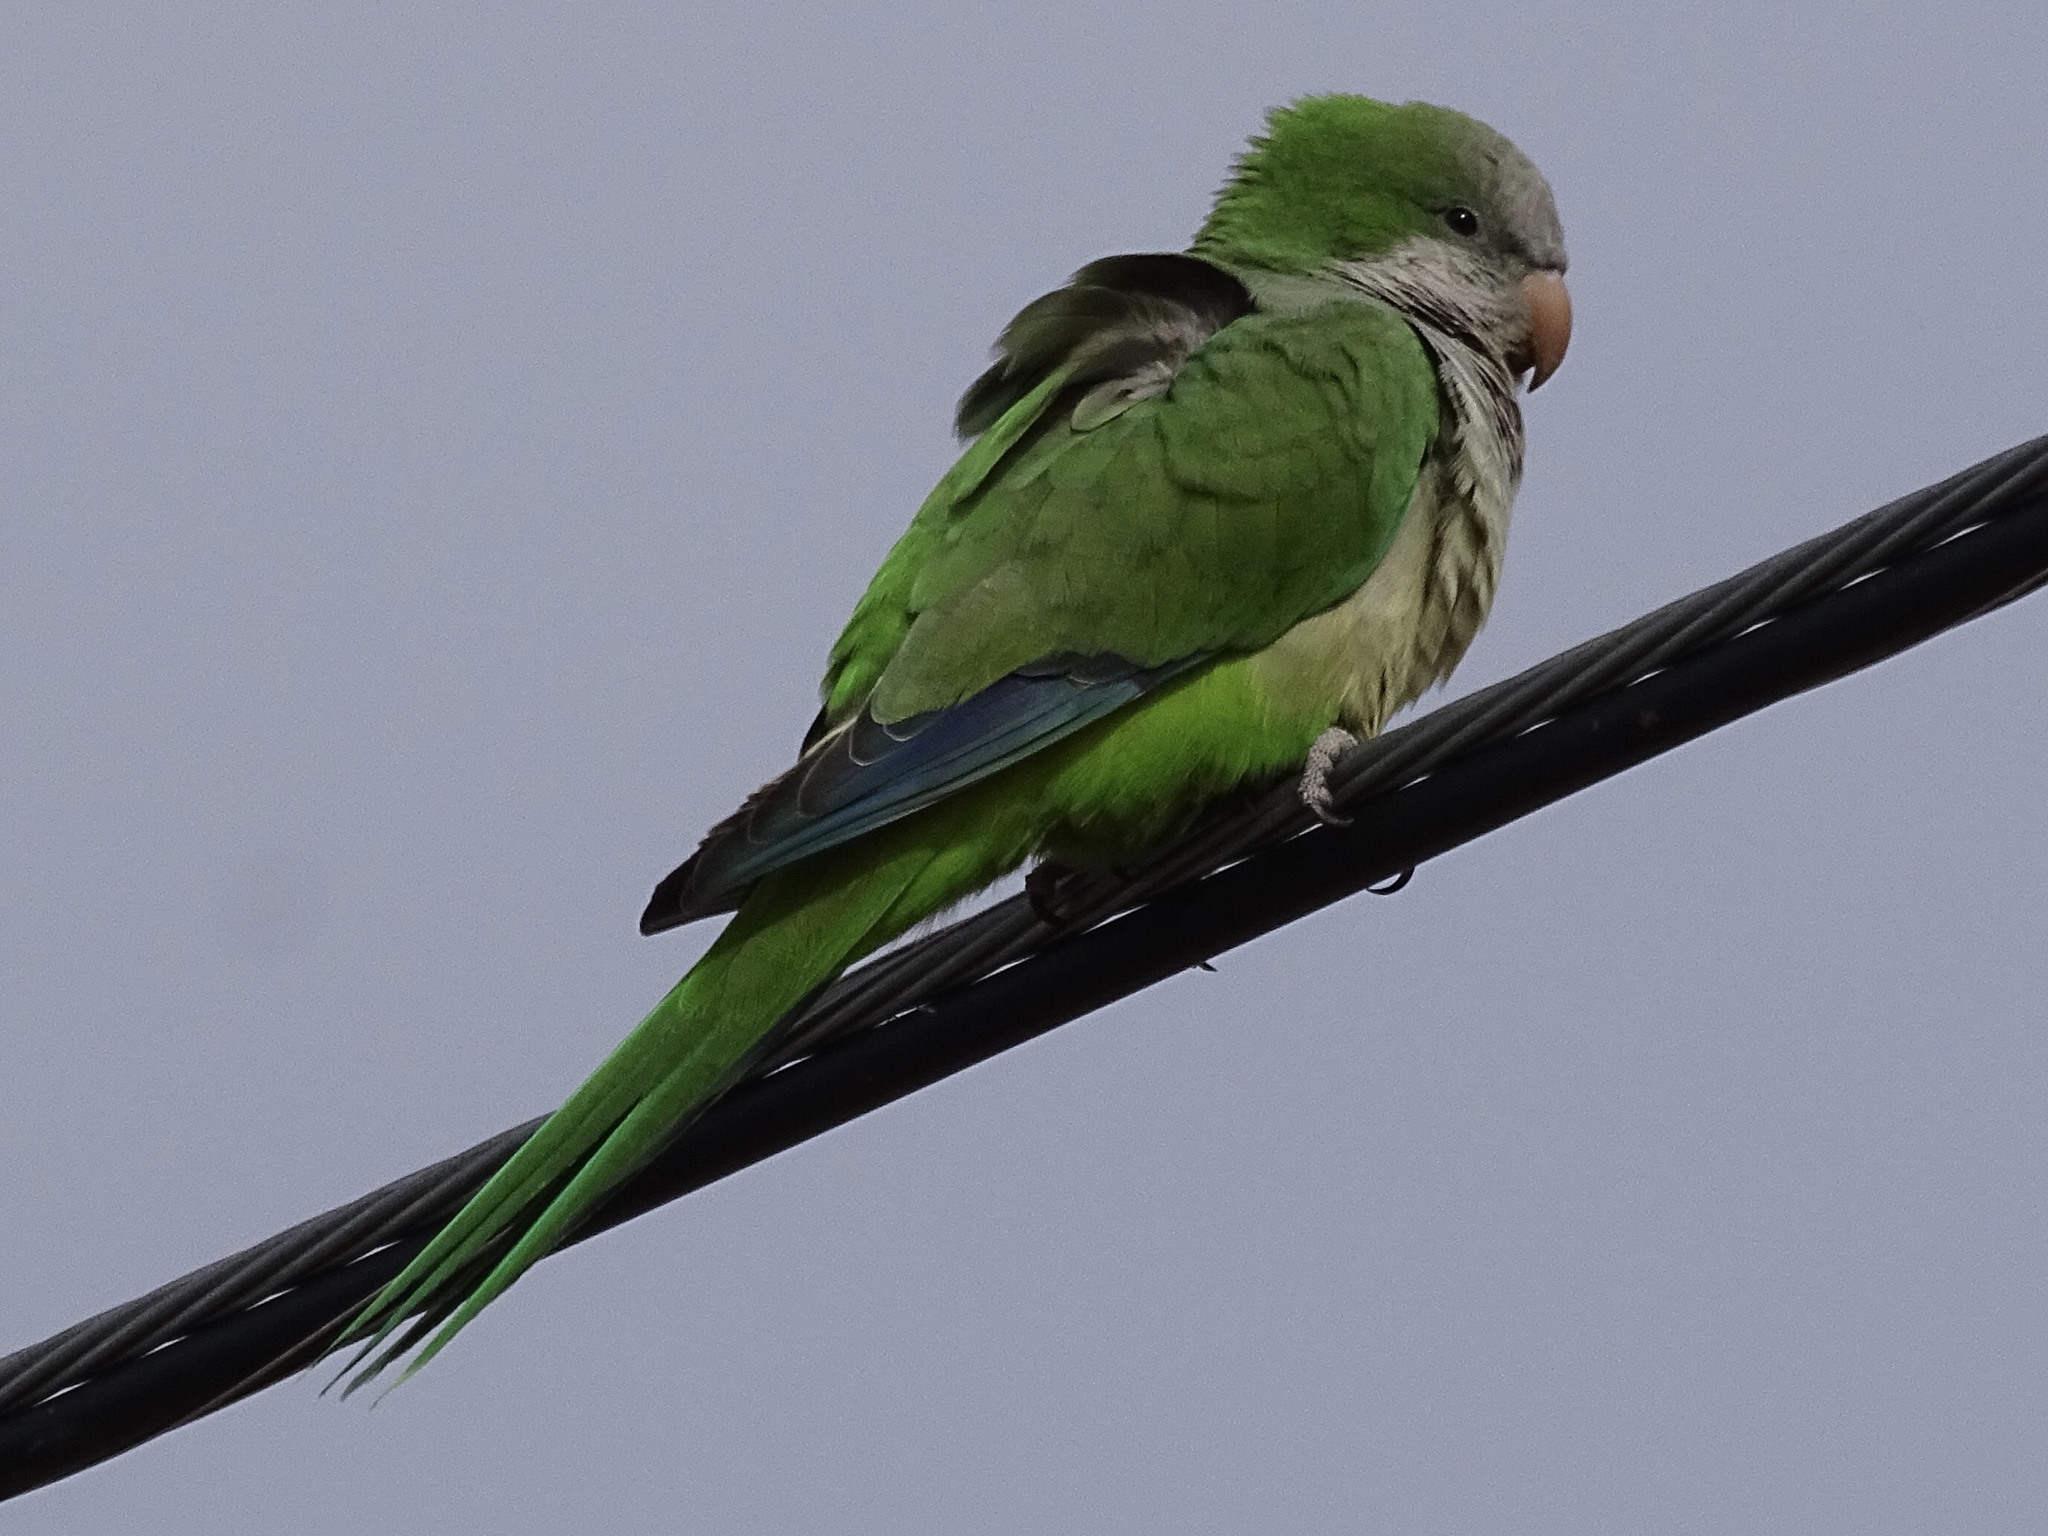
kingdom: Animalia
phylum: Chordata
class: Aves
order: Psittaciformes
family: Psittacidae
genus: Myiopsitta
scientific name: Myiopsitta monachus
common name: Monk parakeet
